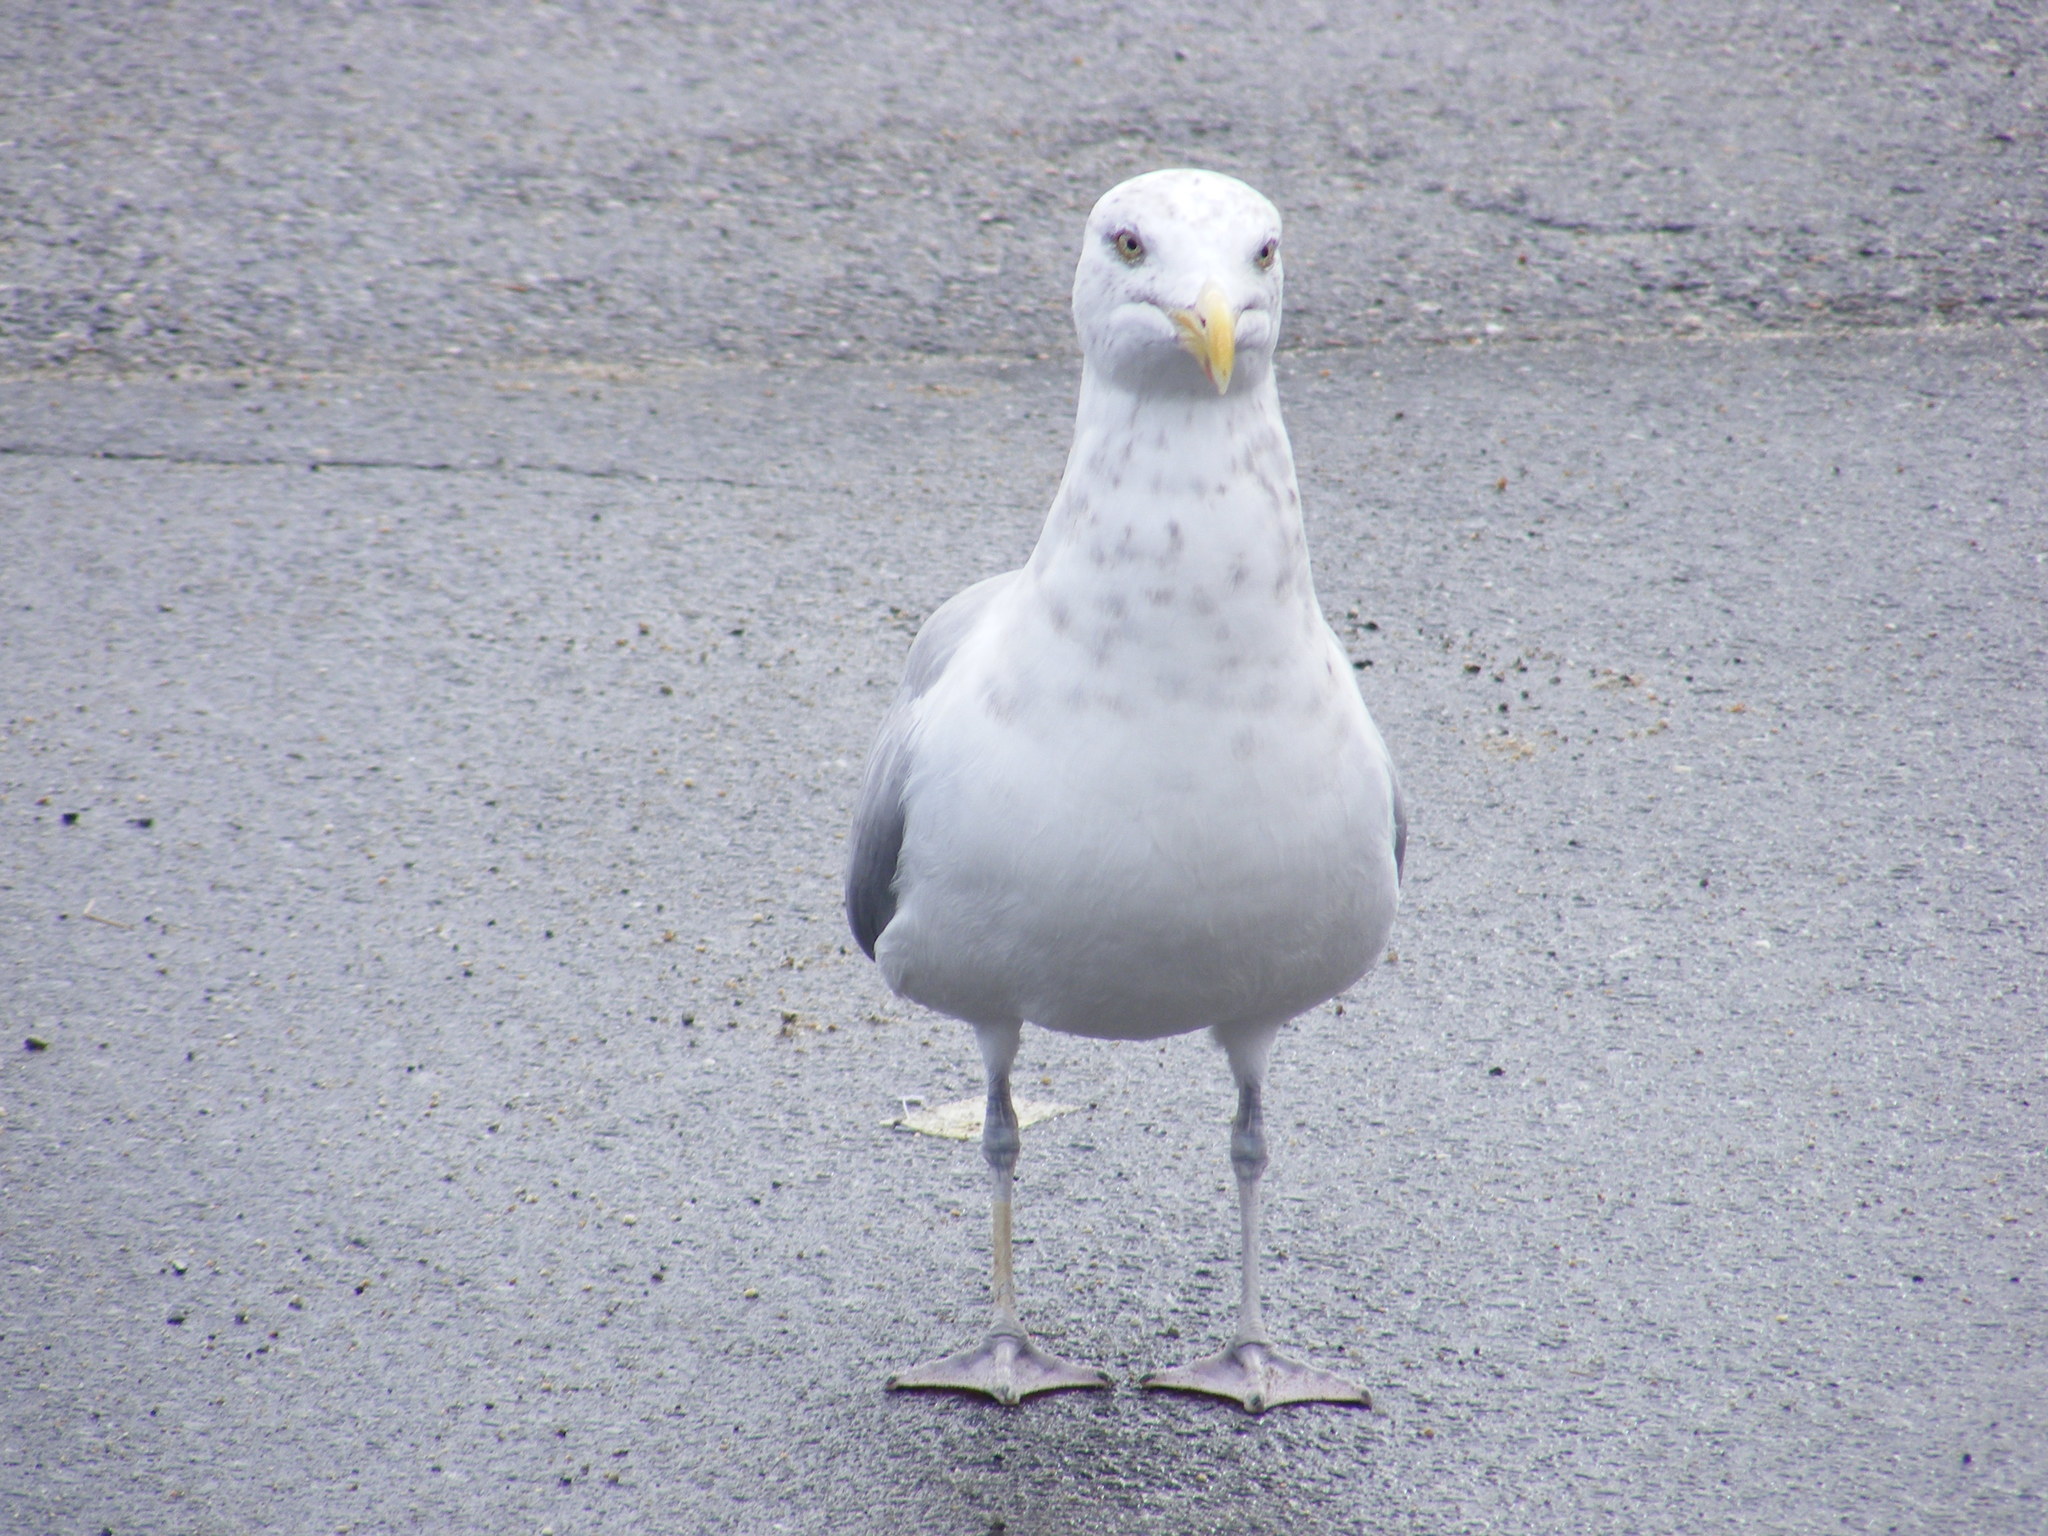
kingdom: Animalia
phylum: Chordata
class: Aves
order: Charadriiformes
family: Laridae
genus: Larus
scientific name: Larus argentatus
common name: Herring gull
